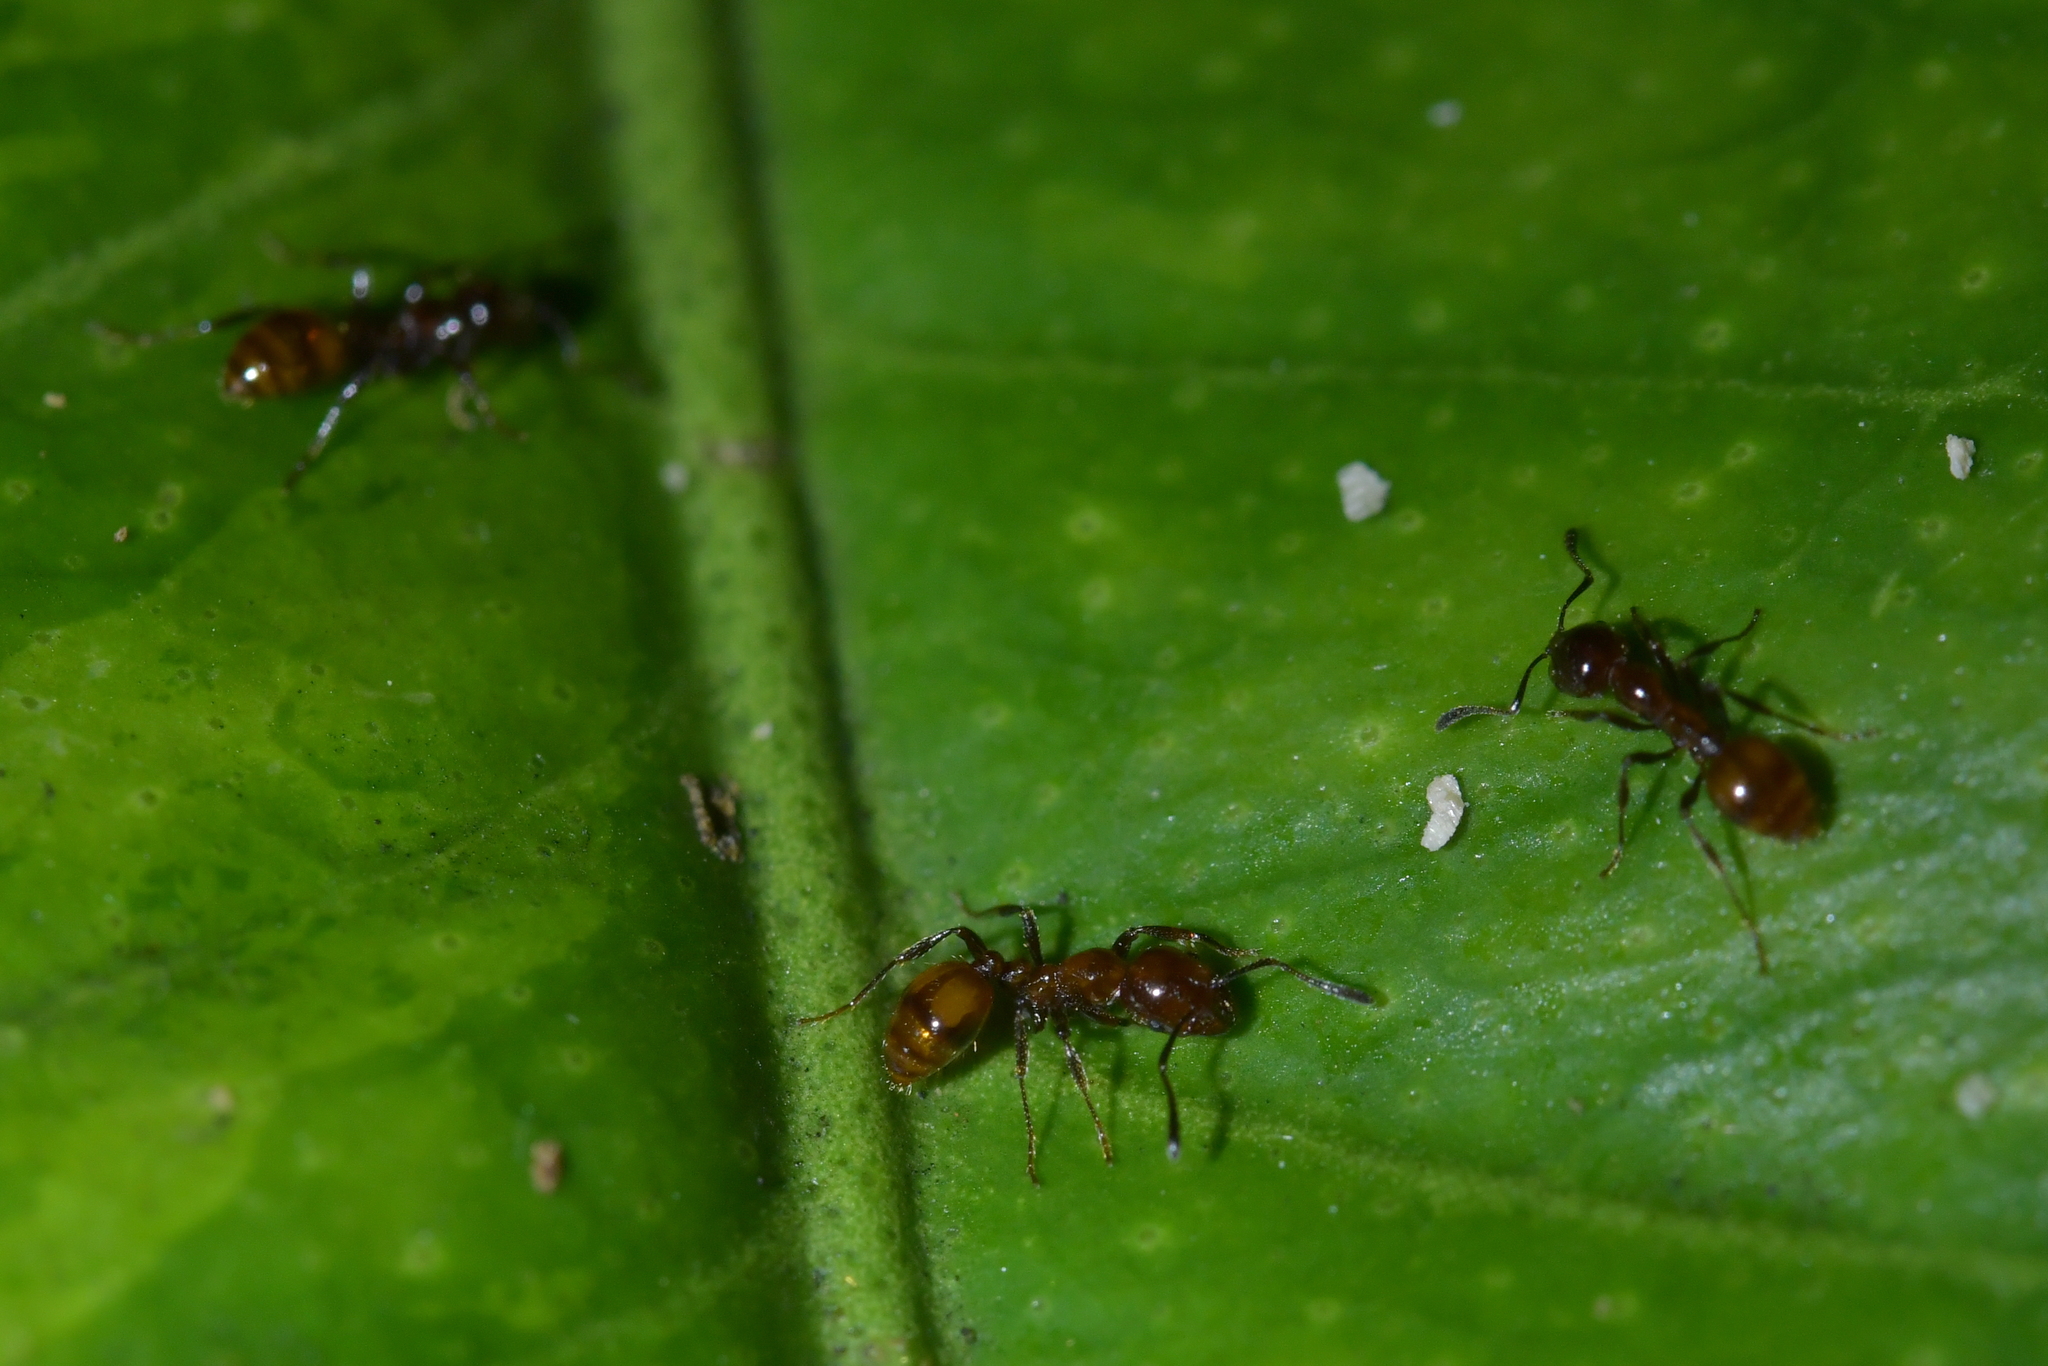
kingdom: Animalia
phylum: Arthropoda
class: Insecta
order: Hymenoptera
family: Formicidae
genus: Monomorium
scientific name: Monomorium antarcticum
